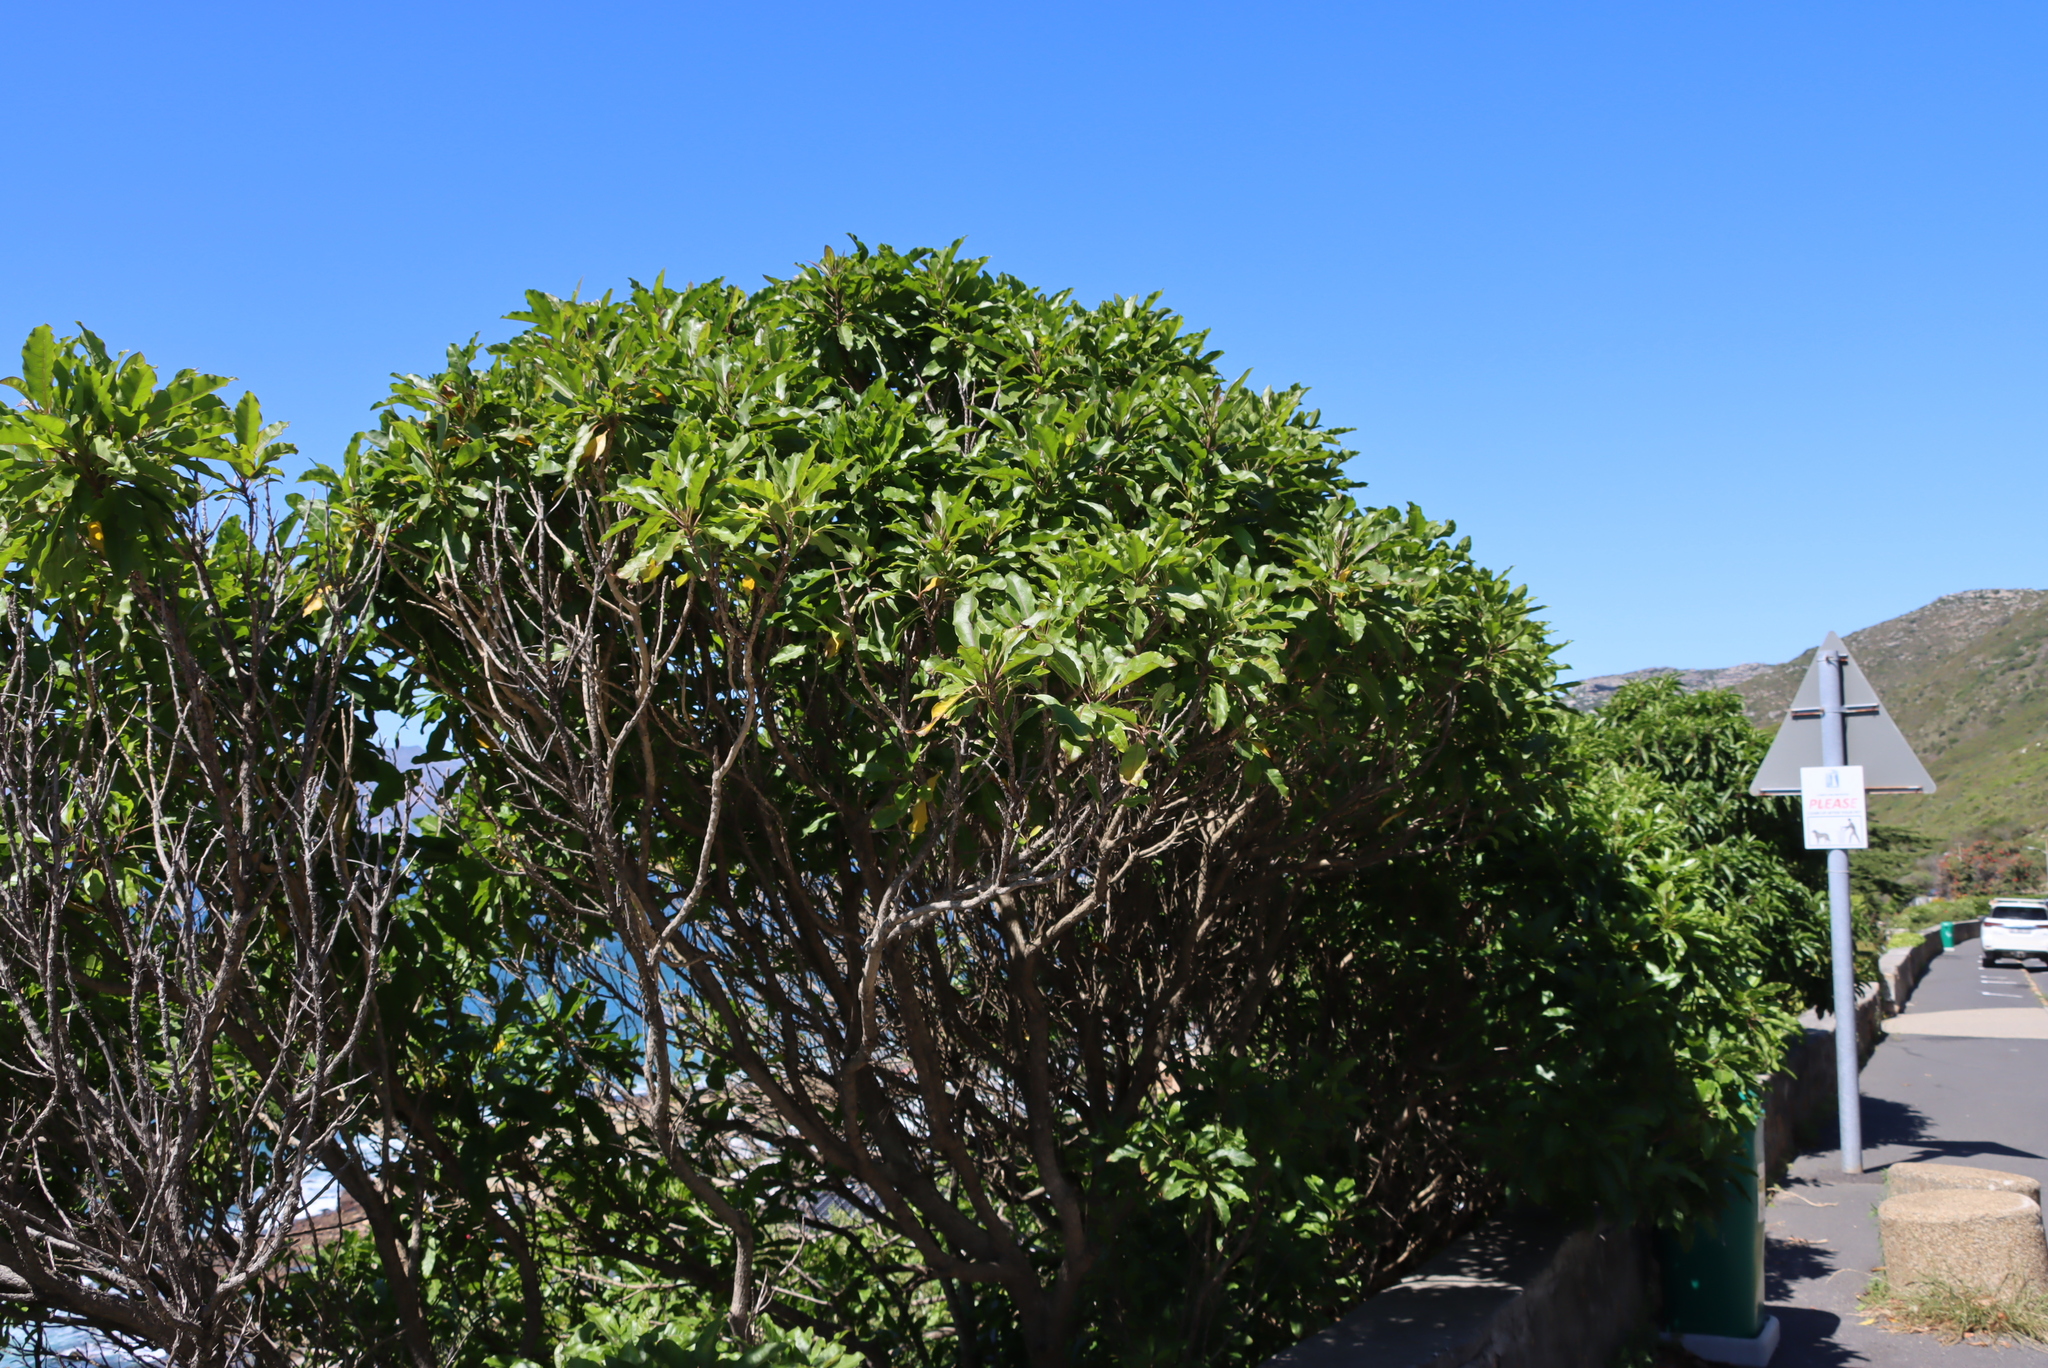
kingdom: Plantae
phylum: Tracheophyta
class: Magnoliopsida
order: Apiales
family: Pittosporaceae
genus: Pittosporum
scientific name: Pittosporum undulatum
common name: Australian cheesewood
